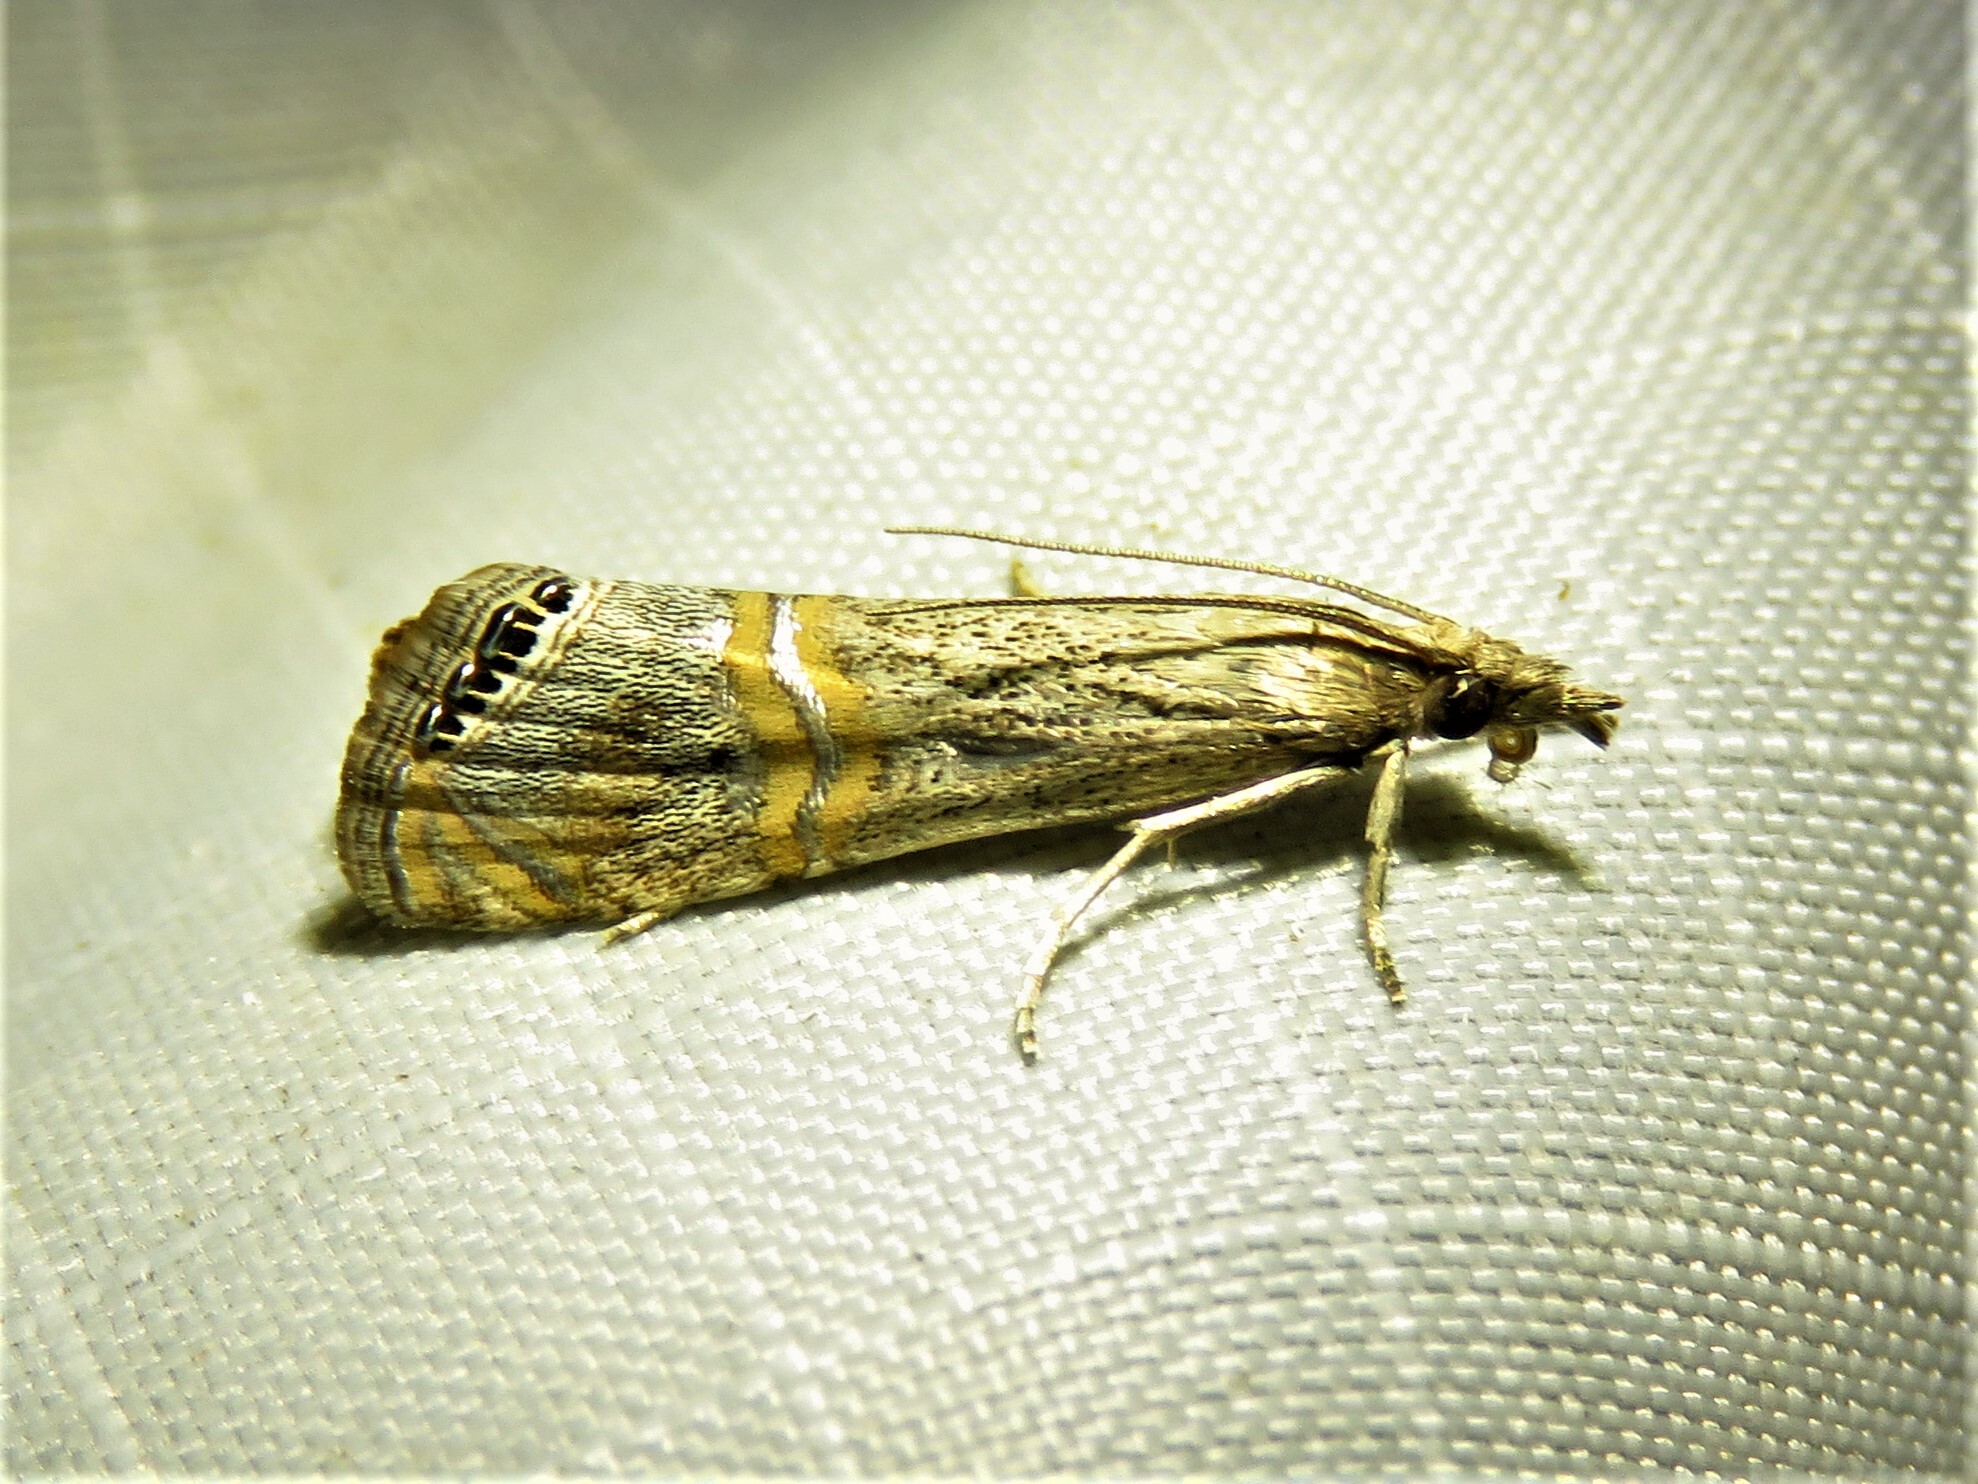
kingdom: Animalia
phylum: Arthropoda
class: Insecta
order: Lepidoptera
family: Crambidae
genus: Euchromius
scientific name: Euchromius ocellea
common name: Necklace veneer moth
